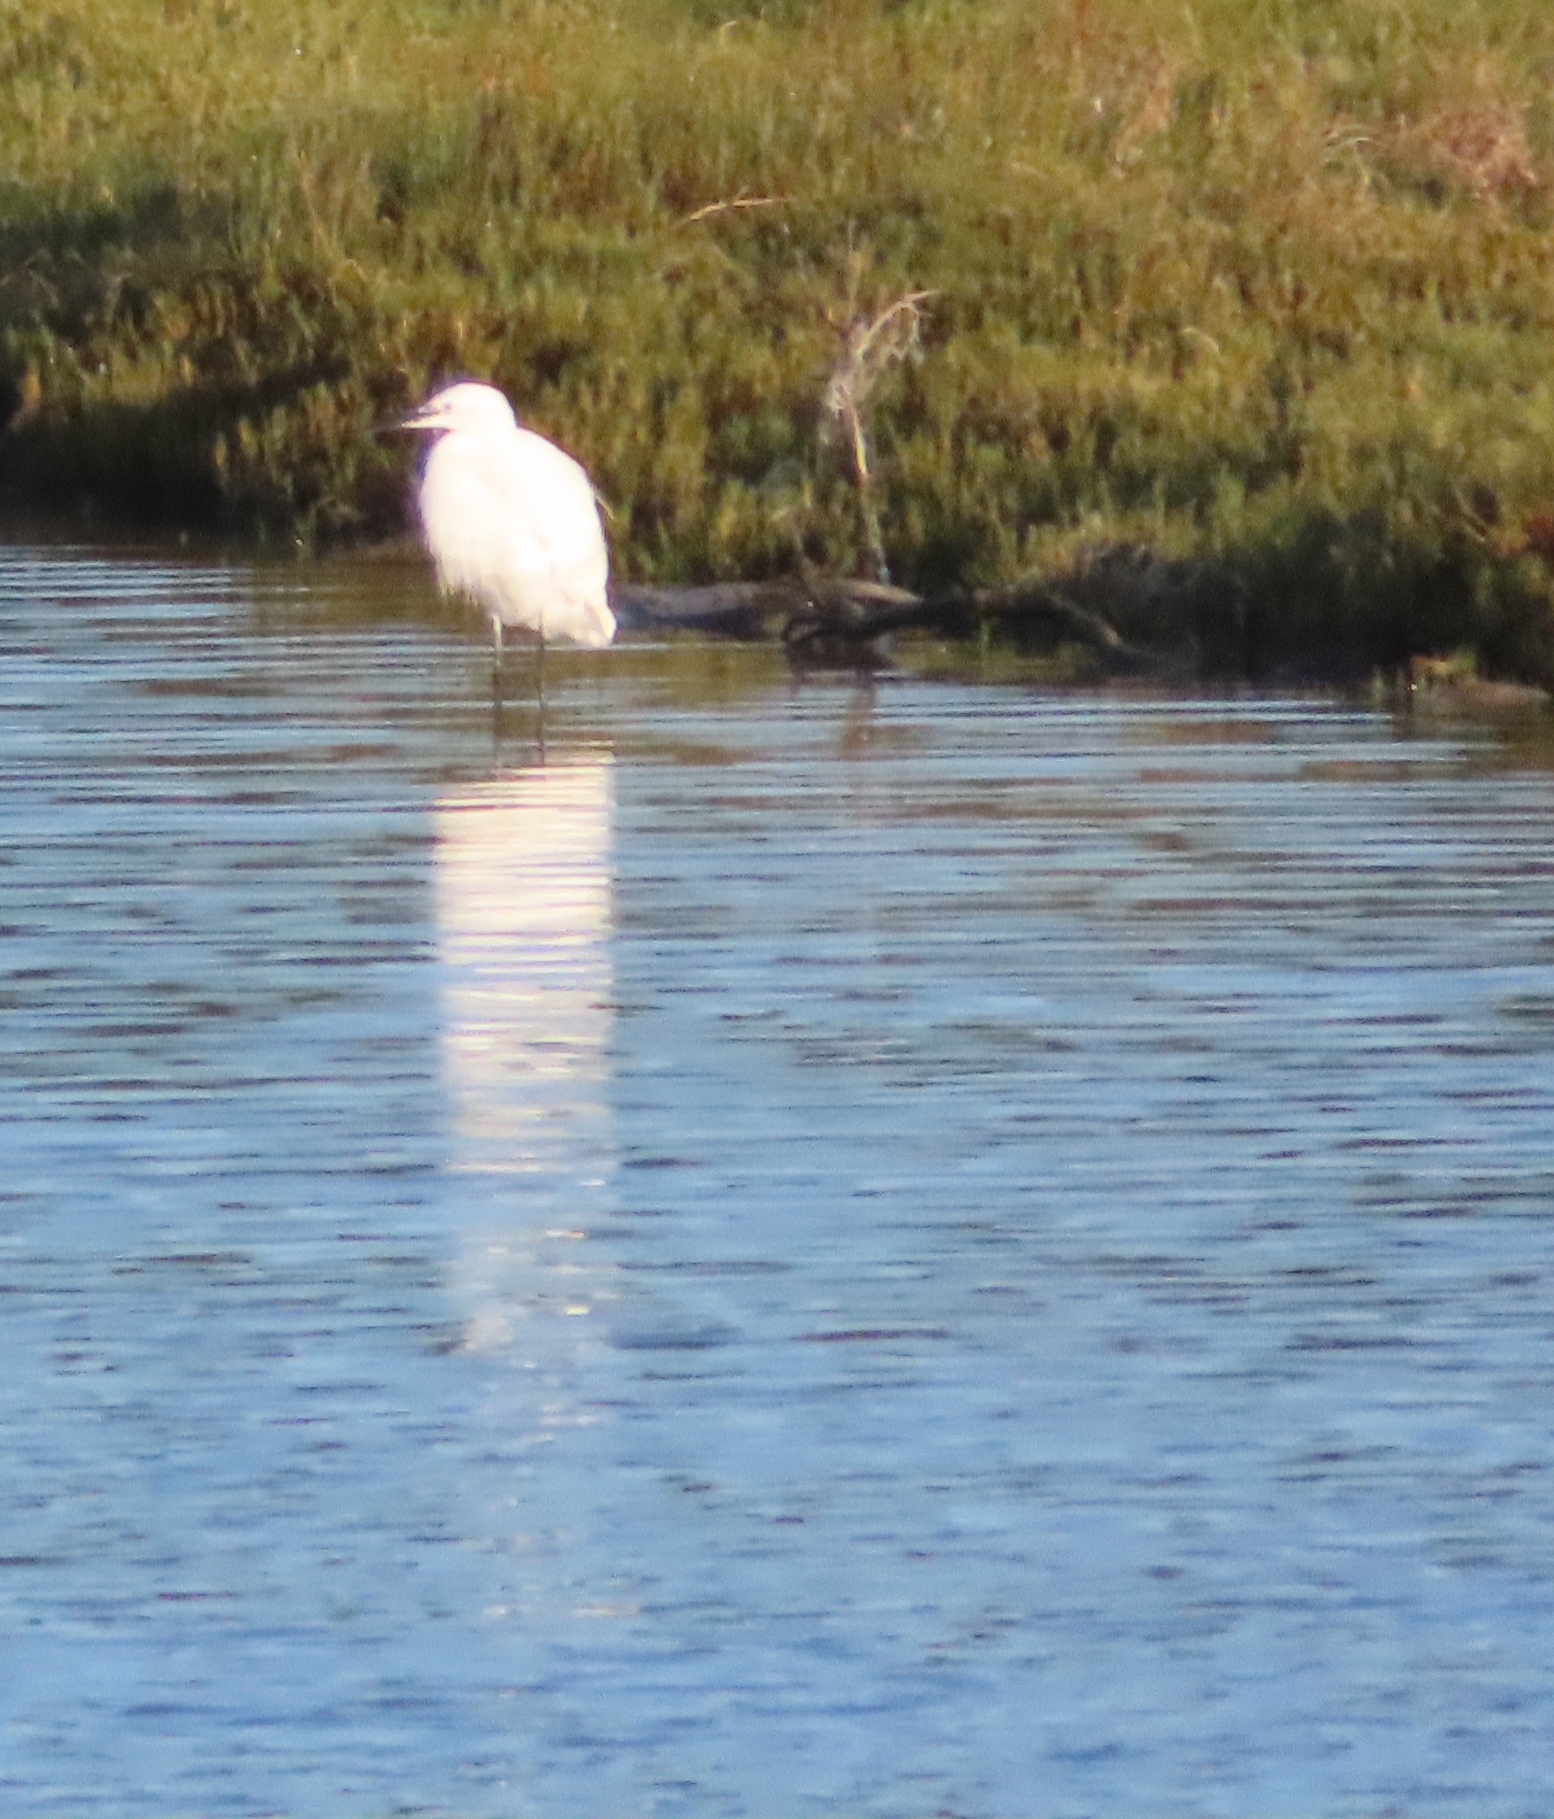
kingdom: Animalia
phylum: Chordata
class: Aves
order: Pelecaniformes
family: Ardeidae
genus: Egretta
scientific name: Egretta garzetta
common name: Little egret
